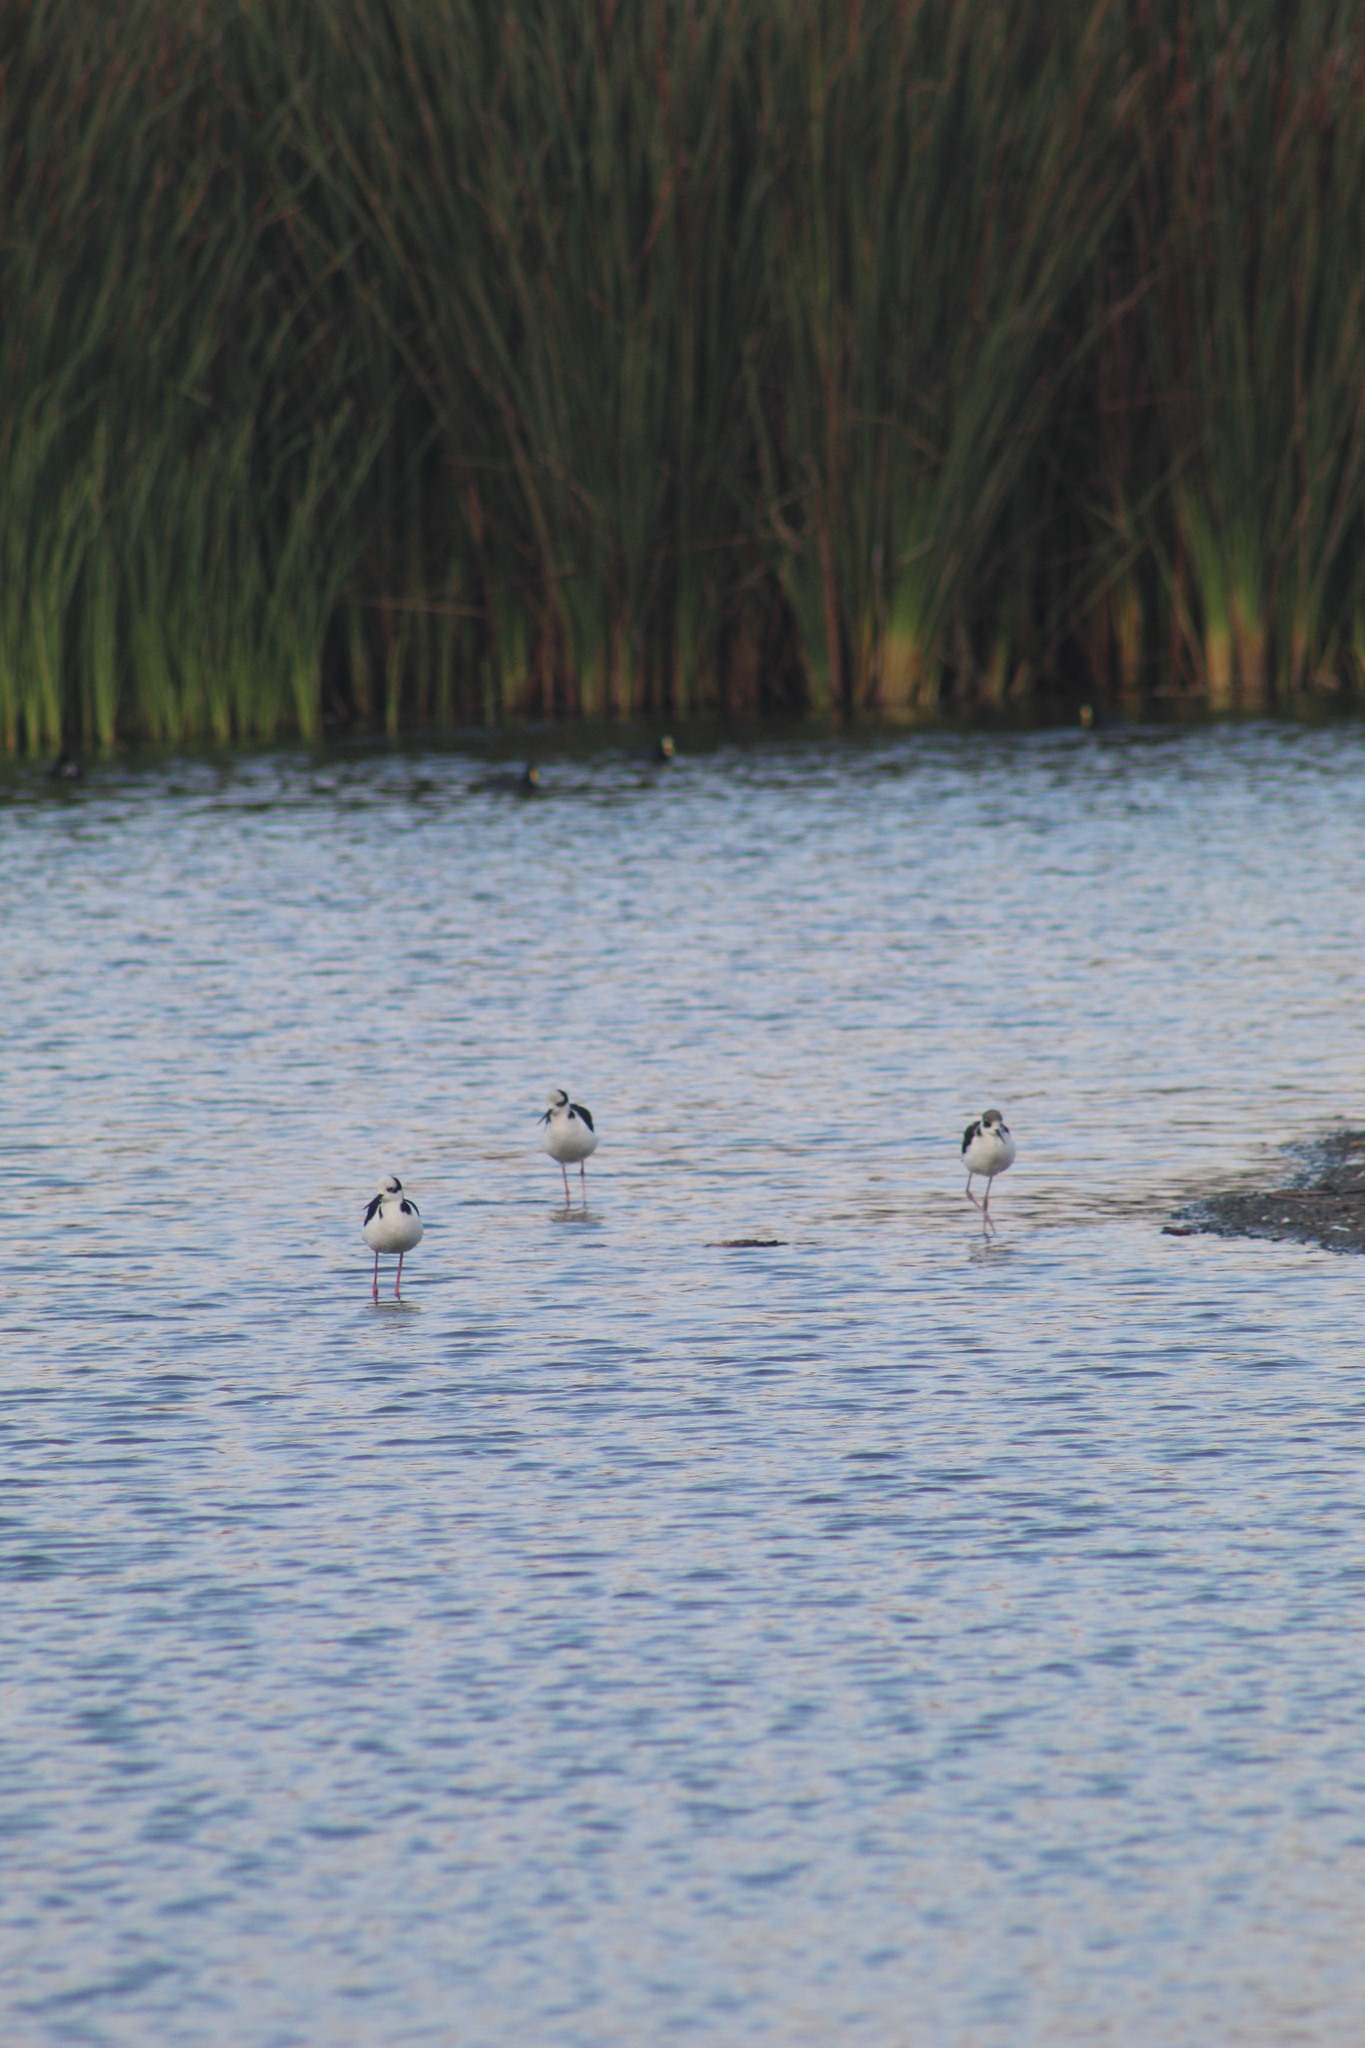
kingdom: Animalia
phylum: Chordata
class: Aves
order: Charadriiformes
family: Recurvirostridae
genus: Himantopus
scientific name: Himantopus mexicanus
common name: Black-necked stilt
